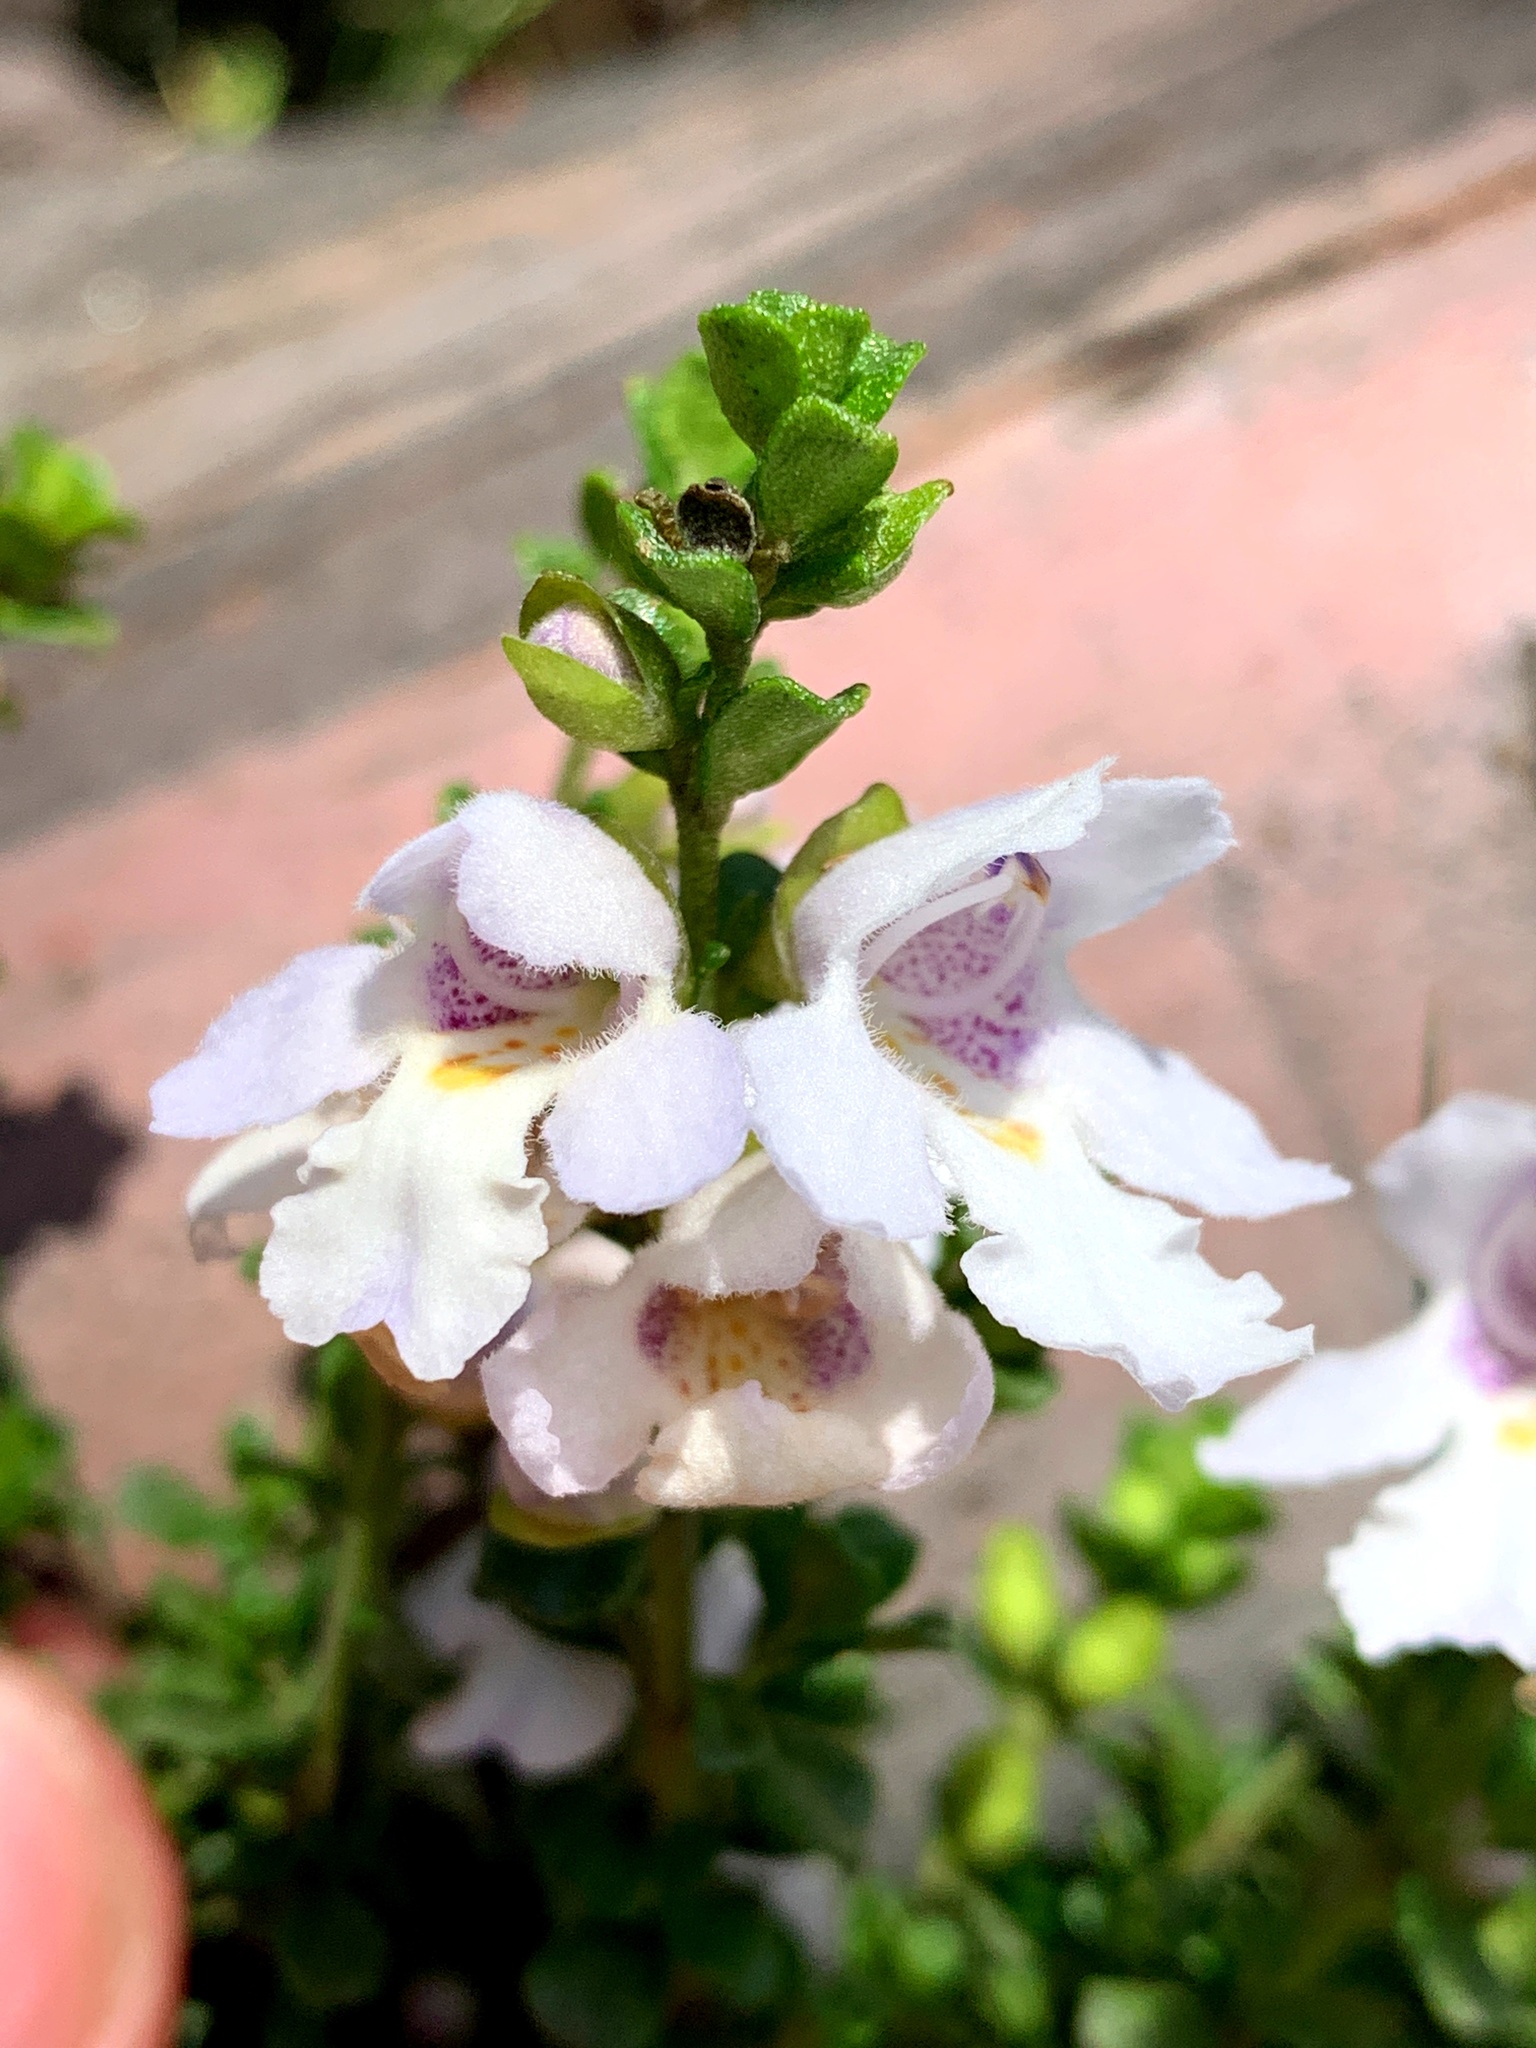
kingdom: Plantae
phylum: Tracheophyta
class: Magnoliopsida
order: Lamiales
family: Lamiaceae
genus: Prostanthera
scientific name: Prostanthera cuneata
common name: Alpine mintbush
